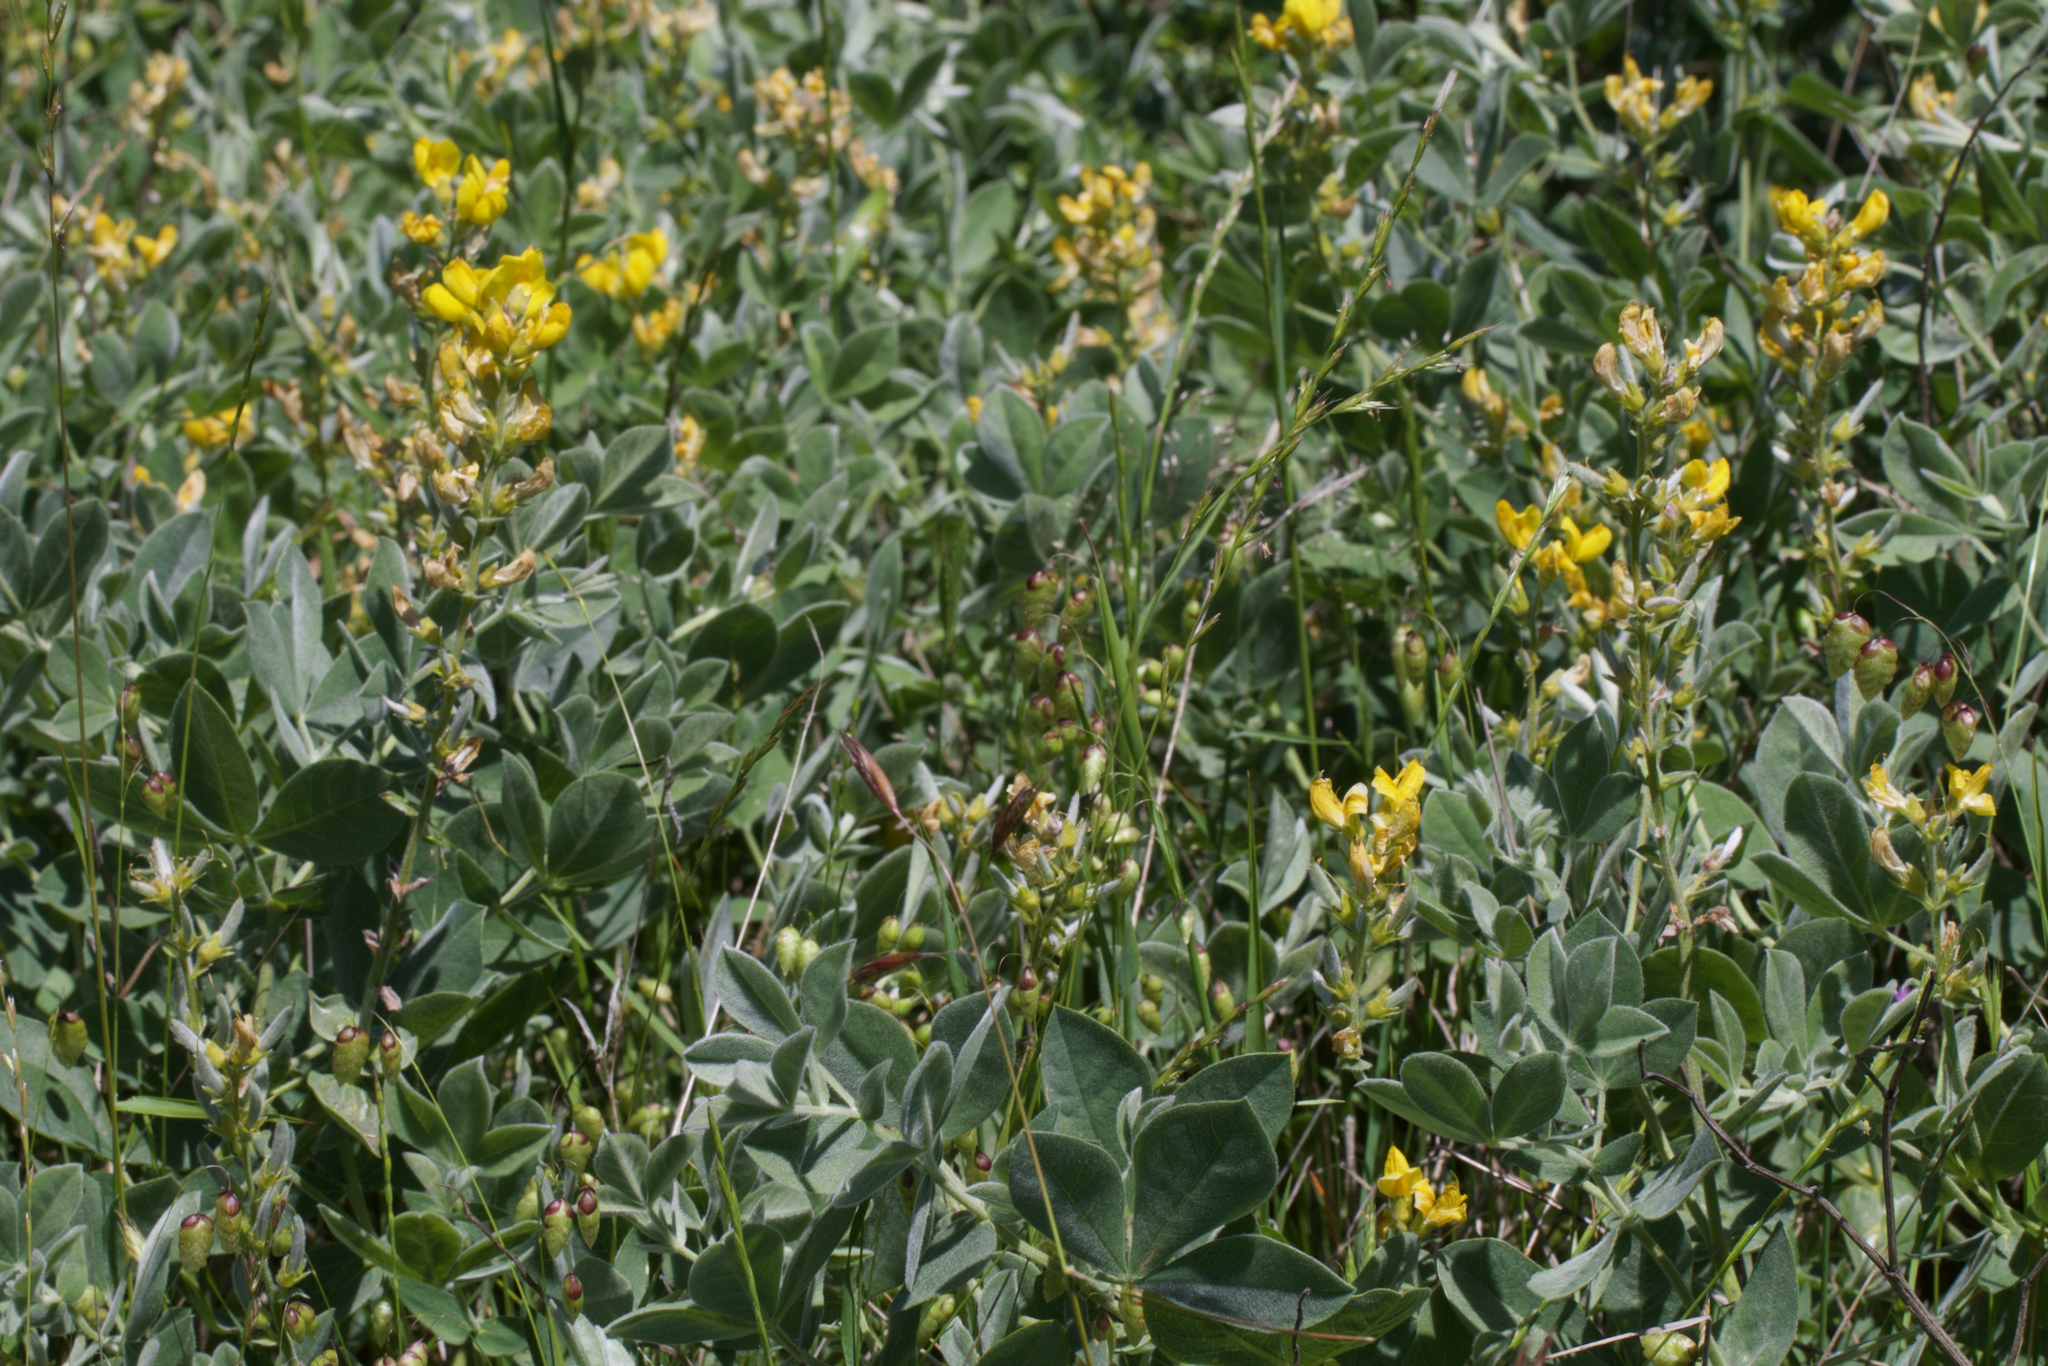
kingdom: Plantae
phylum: Tracheophyta
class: Magnoliopsida
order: Fabales
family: Fabaceae
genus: Thermopsis
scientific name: Thermopsis californica
